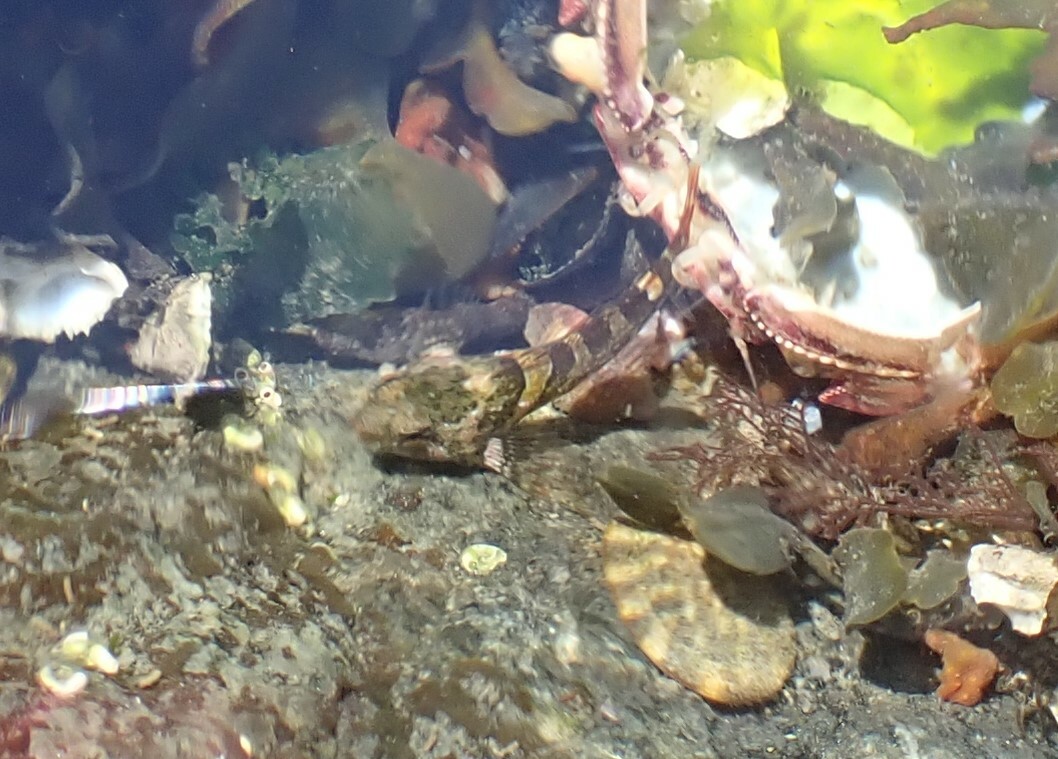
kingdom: Animalia
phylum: Chordata
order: Scorpaeniformes
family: Cottidae
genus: Oligocottus
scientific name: Oligocottus maculosus
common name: Tidepool sculpin
